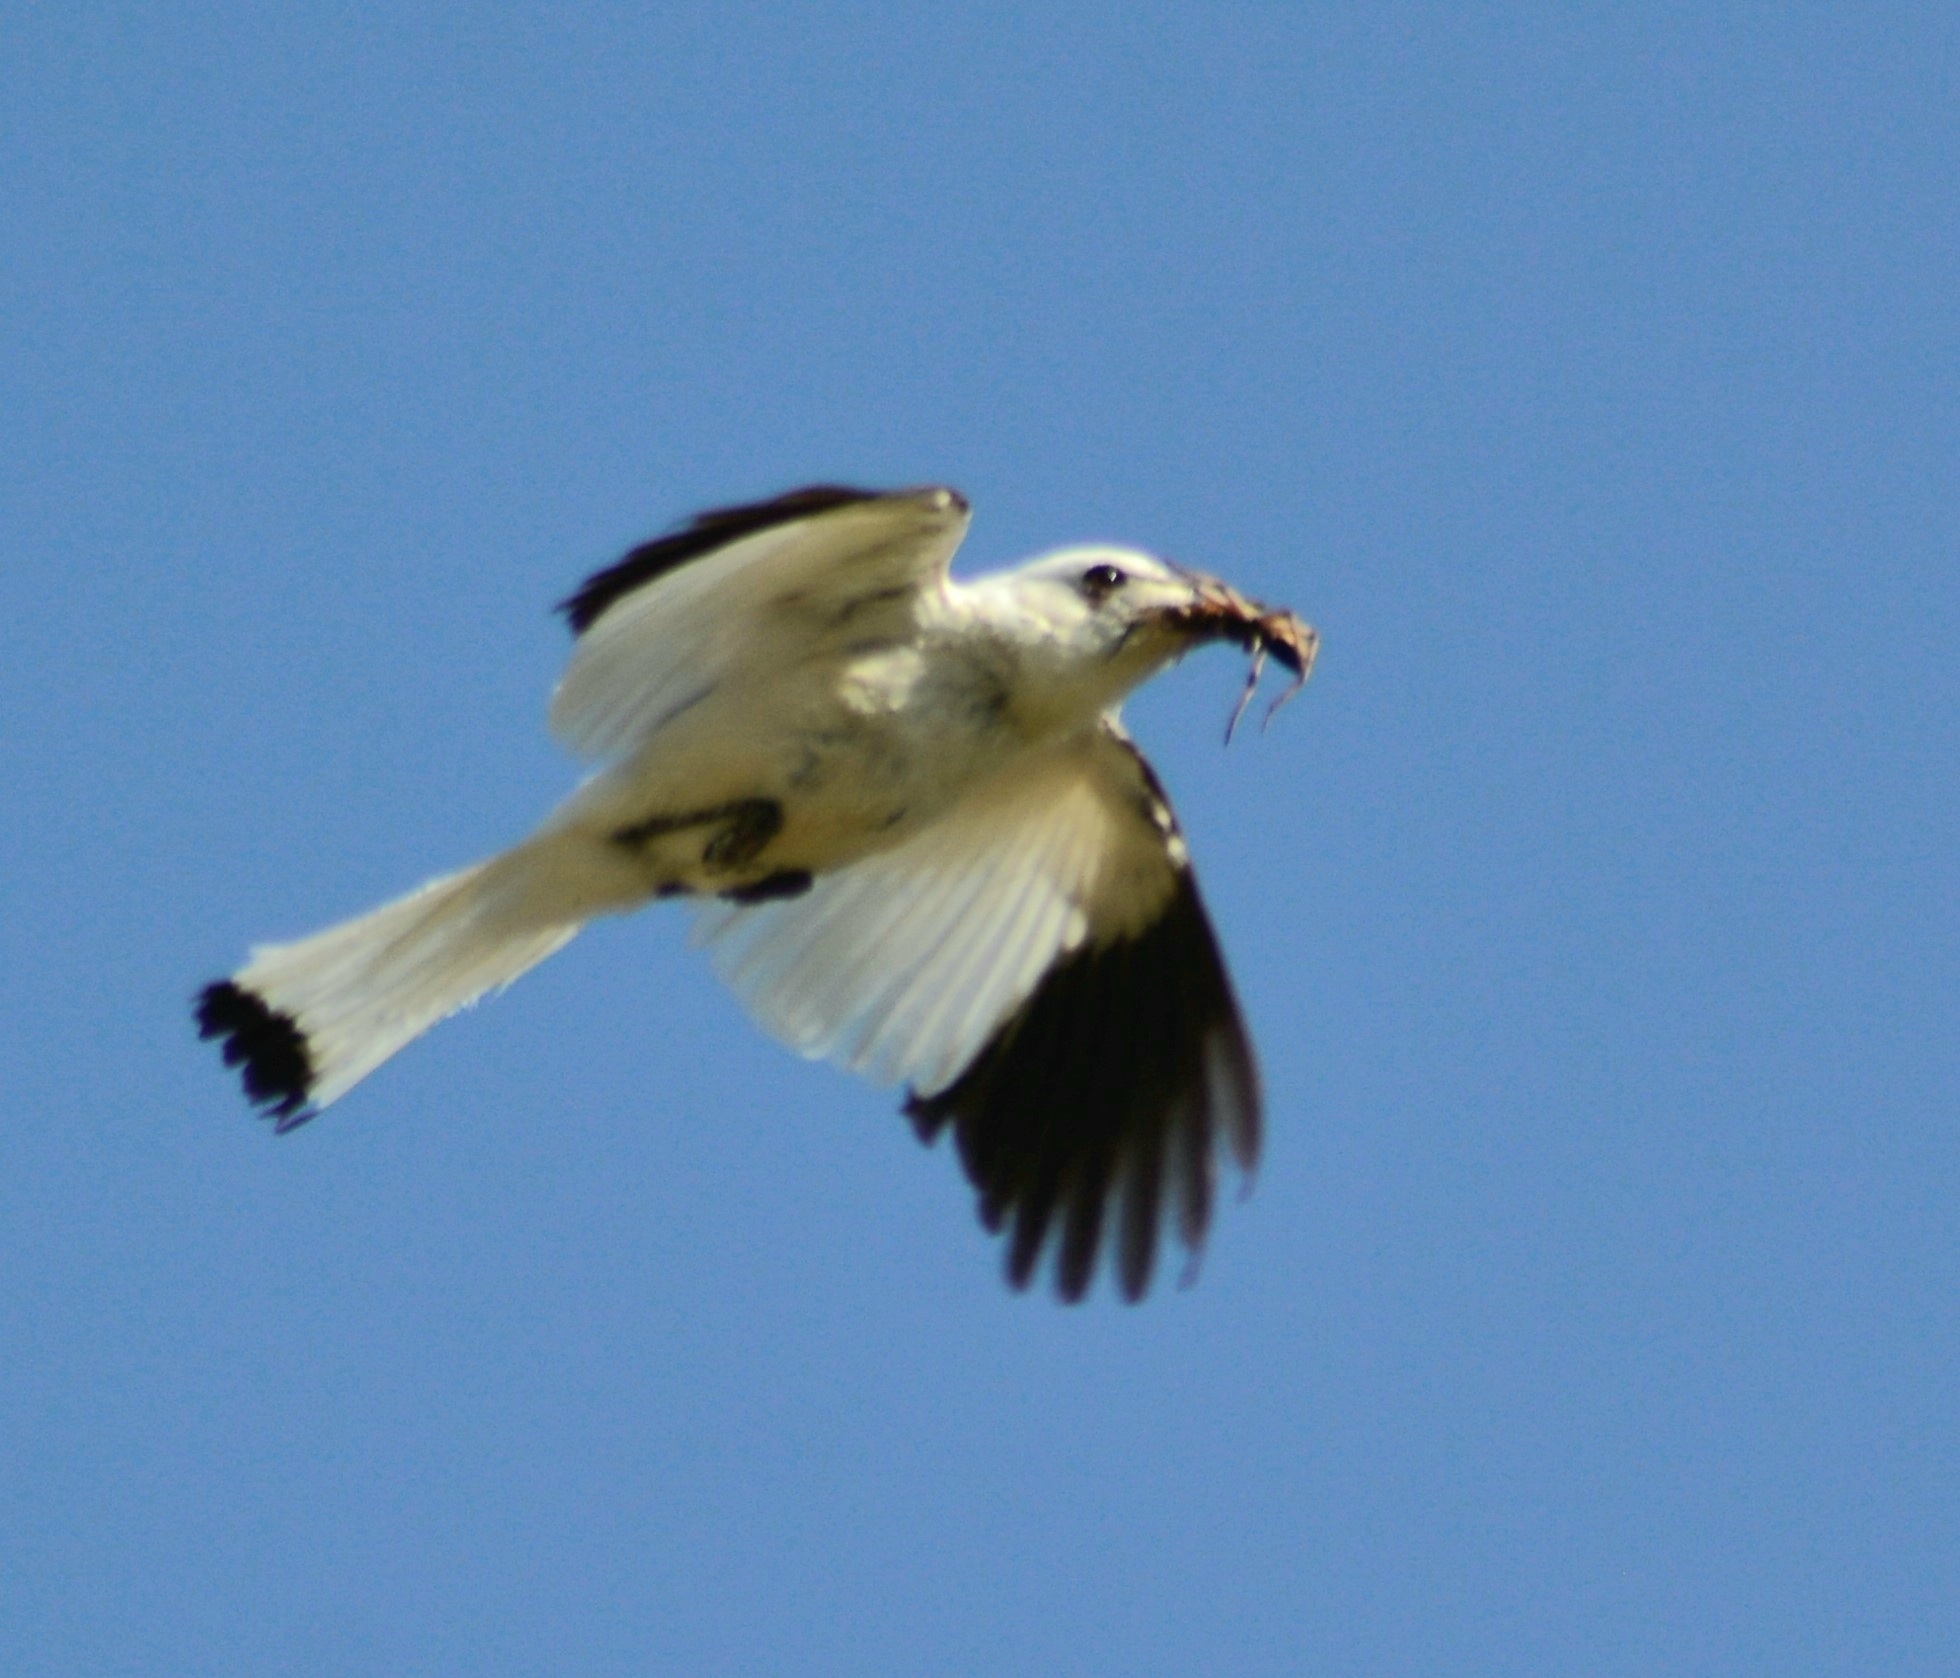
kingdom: Animalia
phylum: Chordata
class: Aves
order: Passeriformes
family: Tyrannidae
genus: Xolmis
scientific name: Xolmis irupero
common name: White monjita
